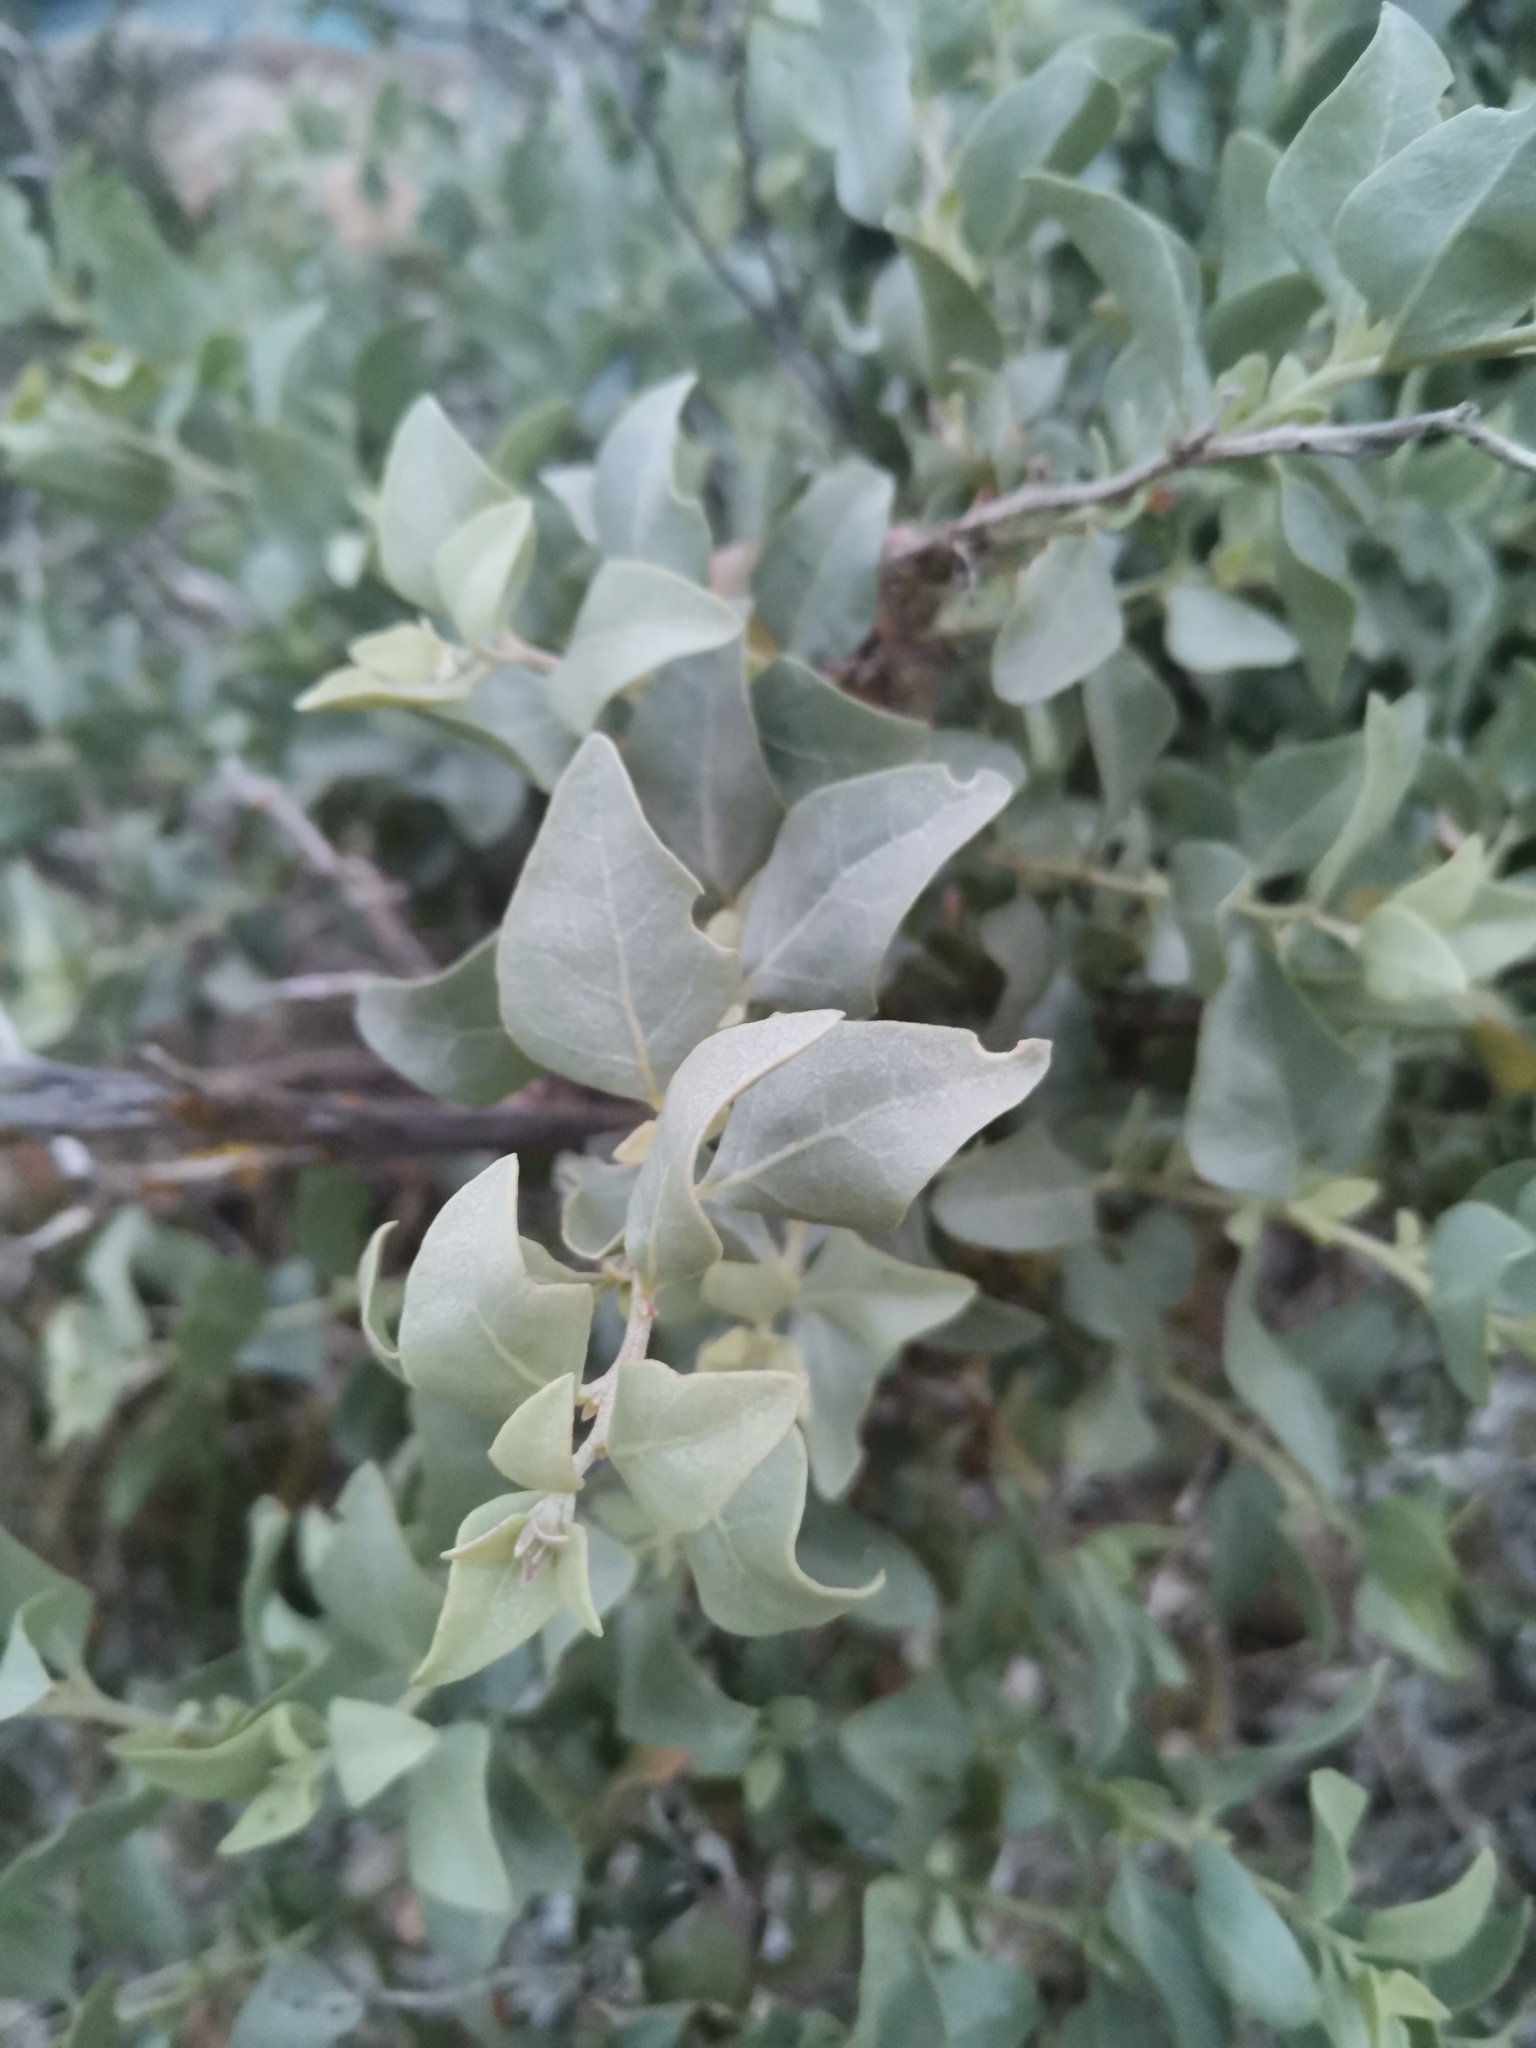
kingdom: Plantae
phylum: Tracheophyta
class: Magnoliopsida
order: Caryophyllales
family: Amaranthaceae
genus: Atriplex
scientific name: Atriplex halimus
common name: Shrubby orache
